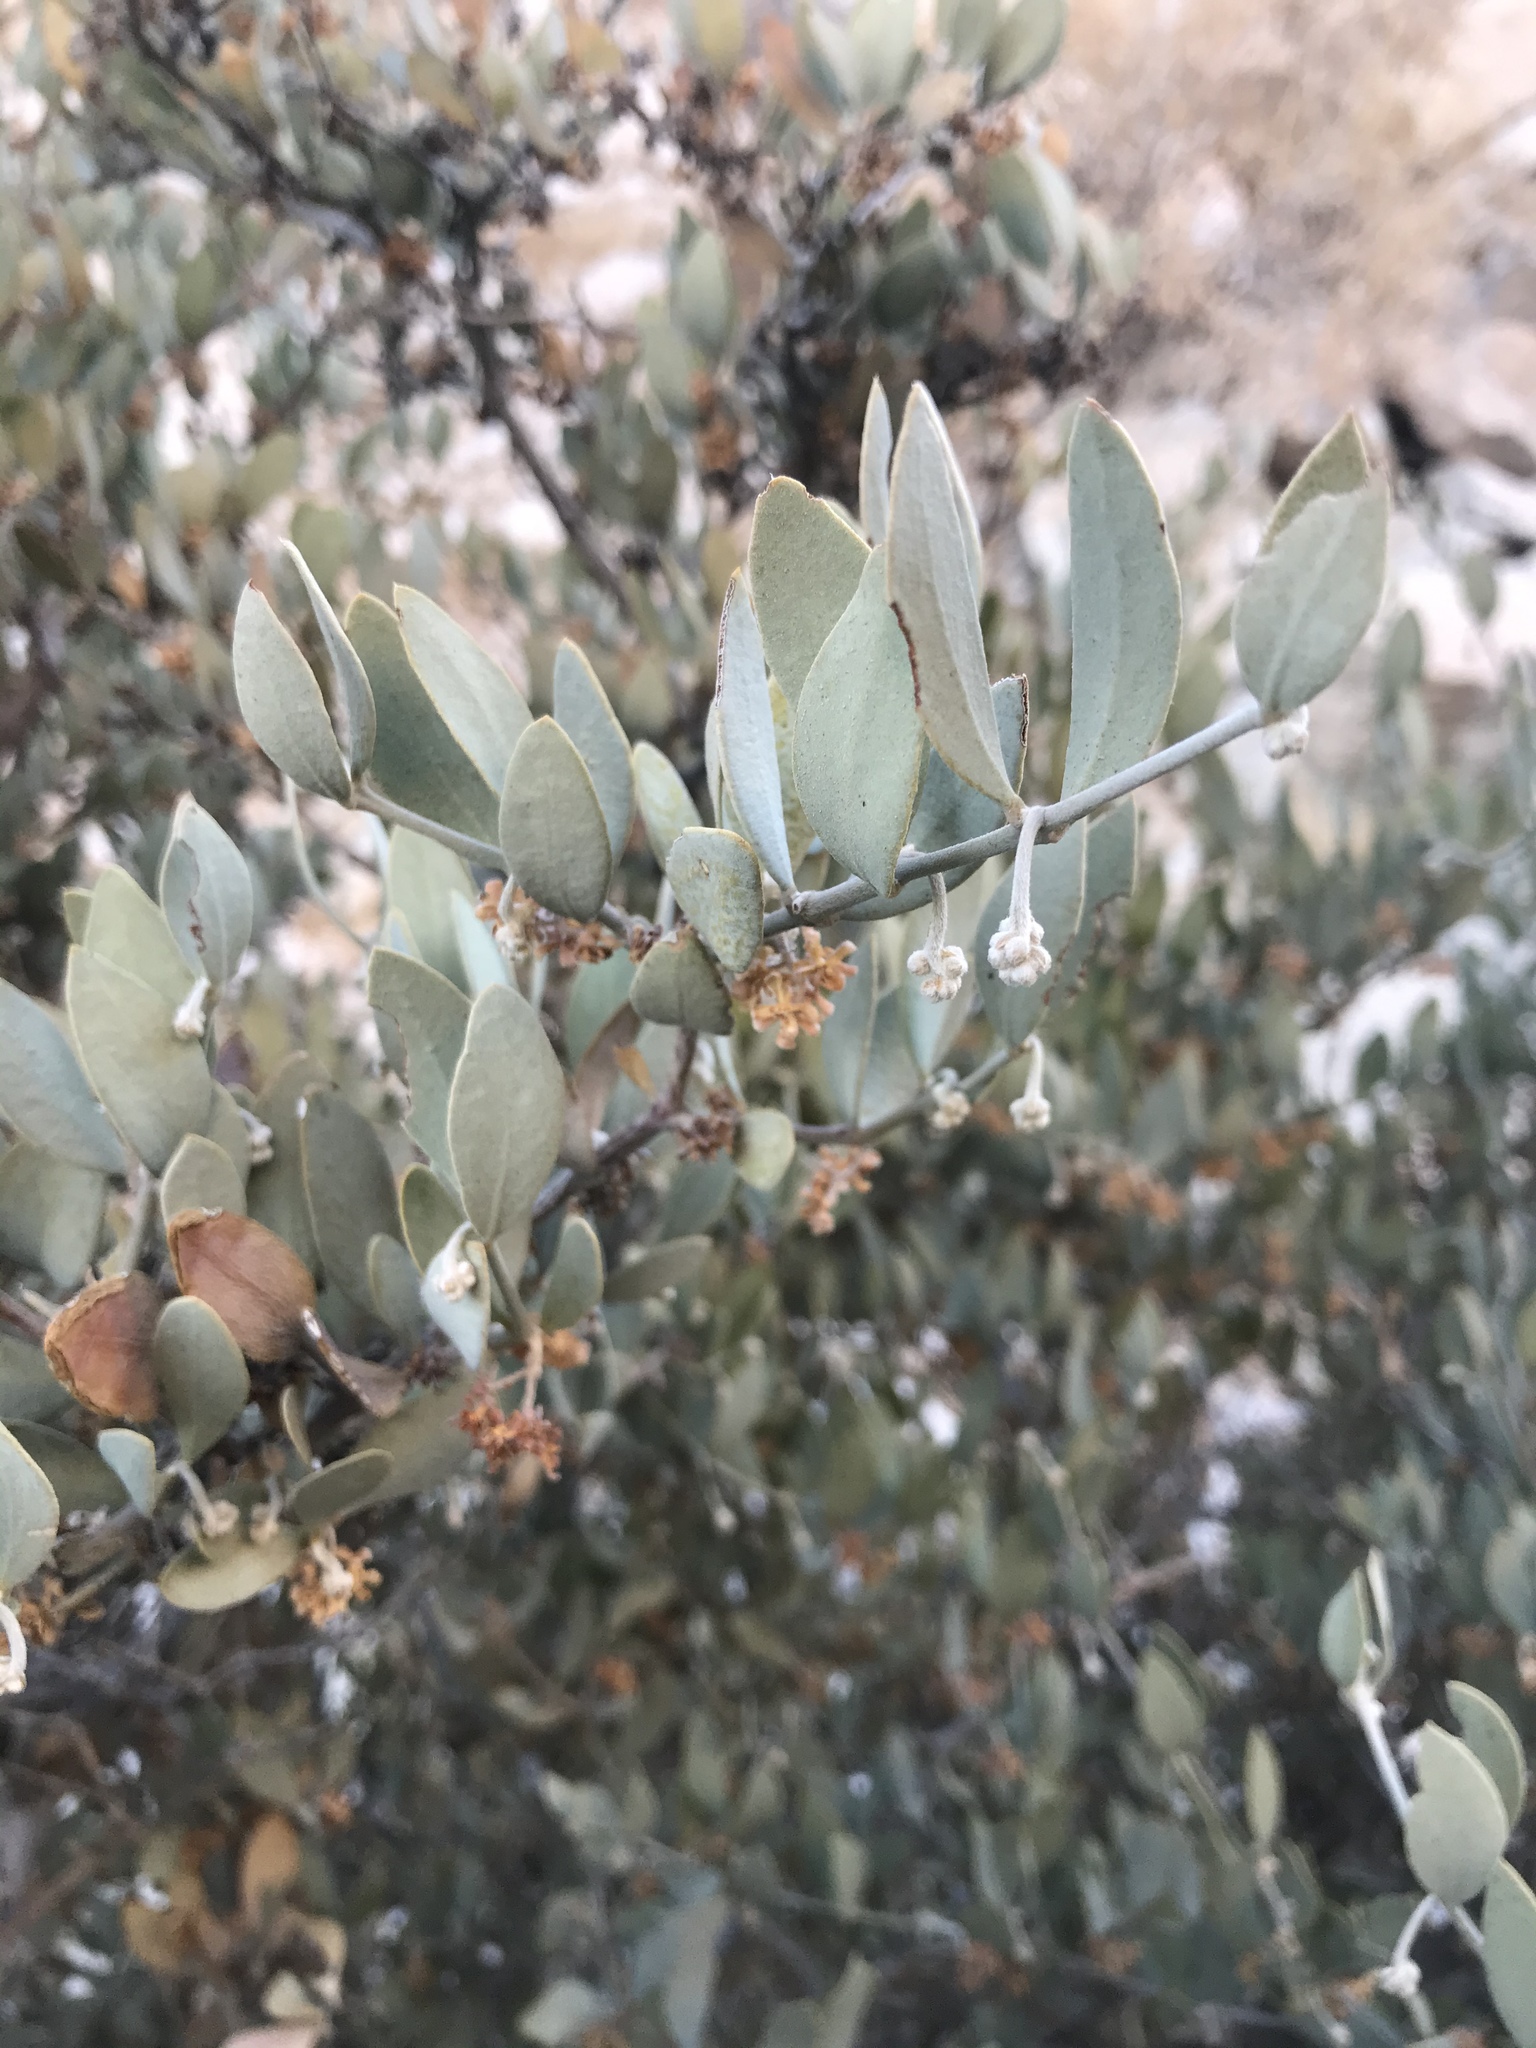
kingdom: Plantae
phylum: Tracheophyta
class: Magnoliopsida
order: Caryophyllales
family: Simmondsiaceae
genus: Simmondsia
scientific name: Simmondsia chinensis
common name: Jojoba
